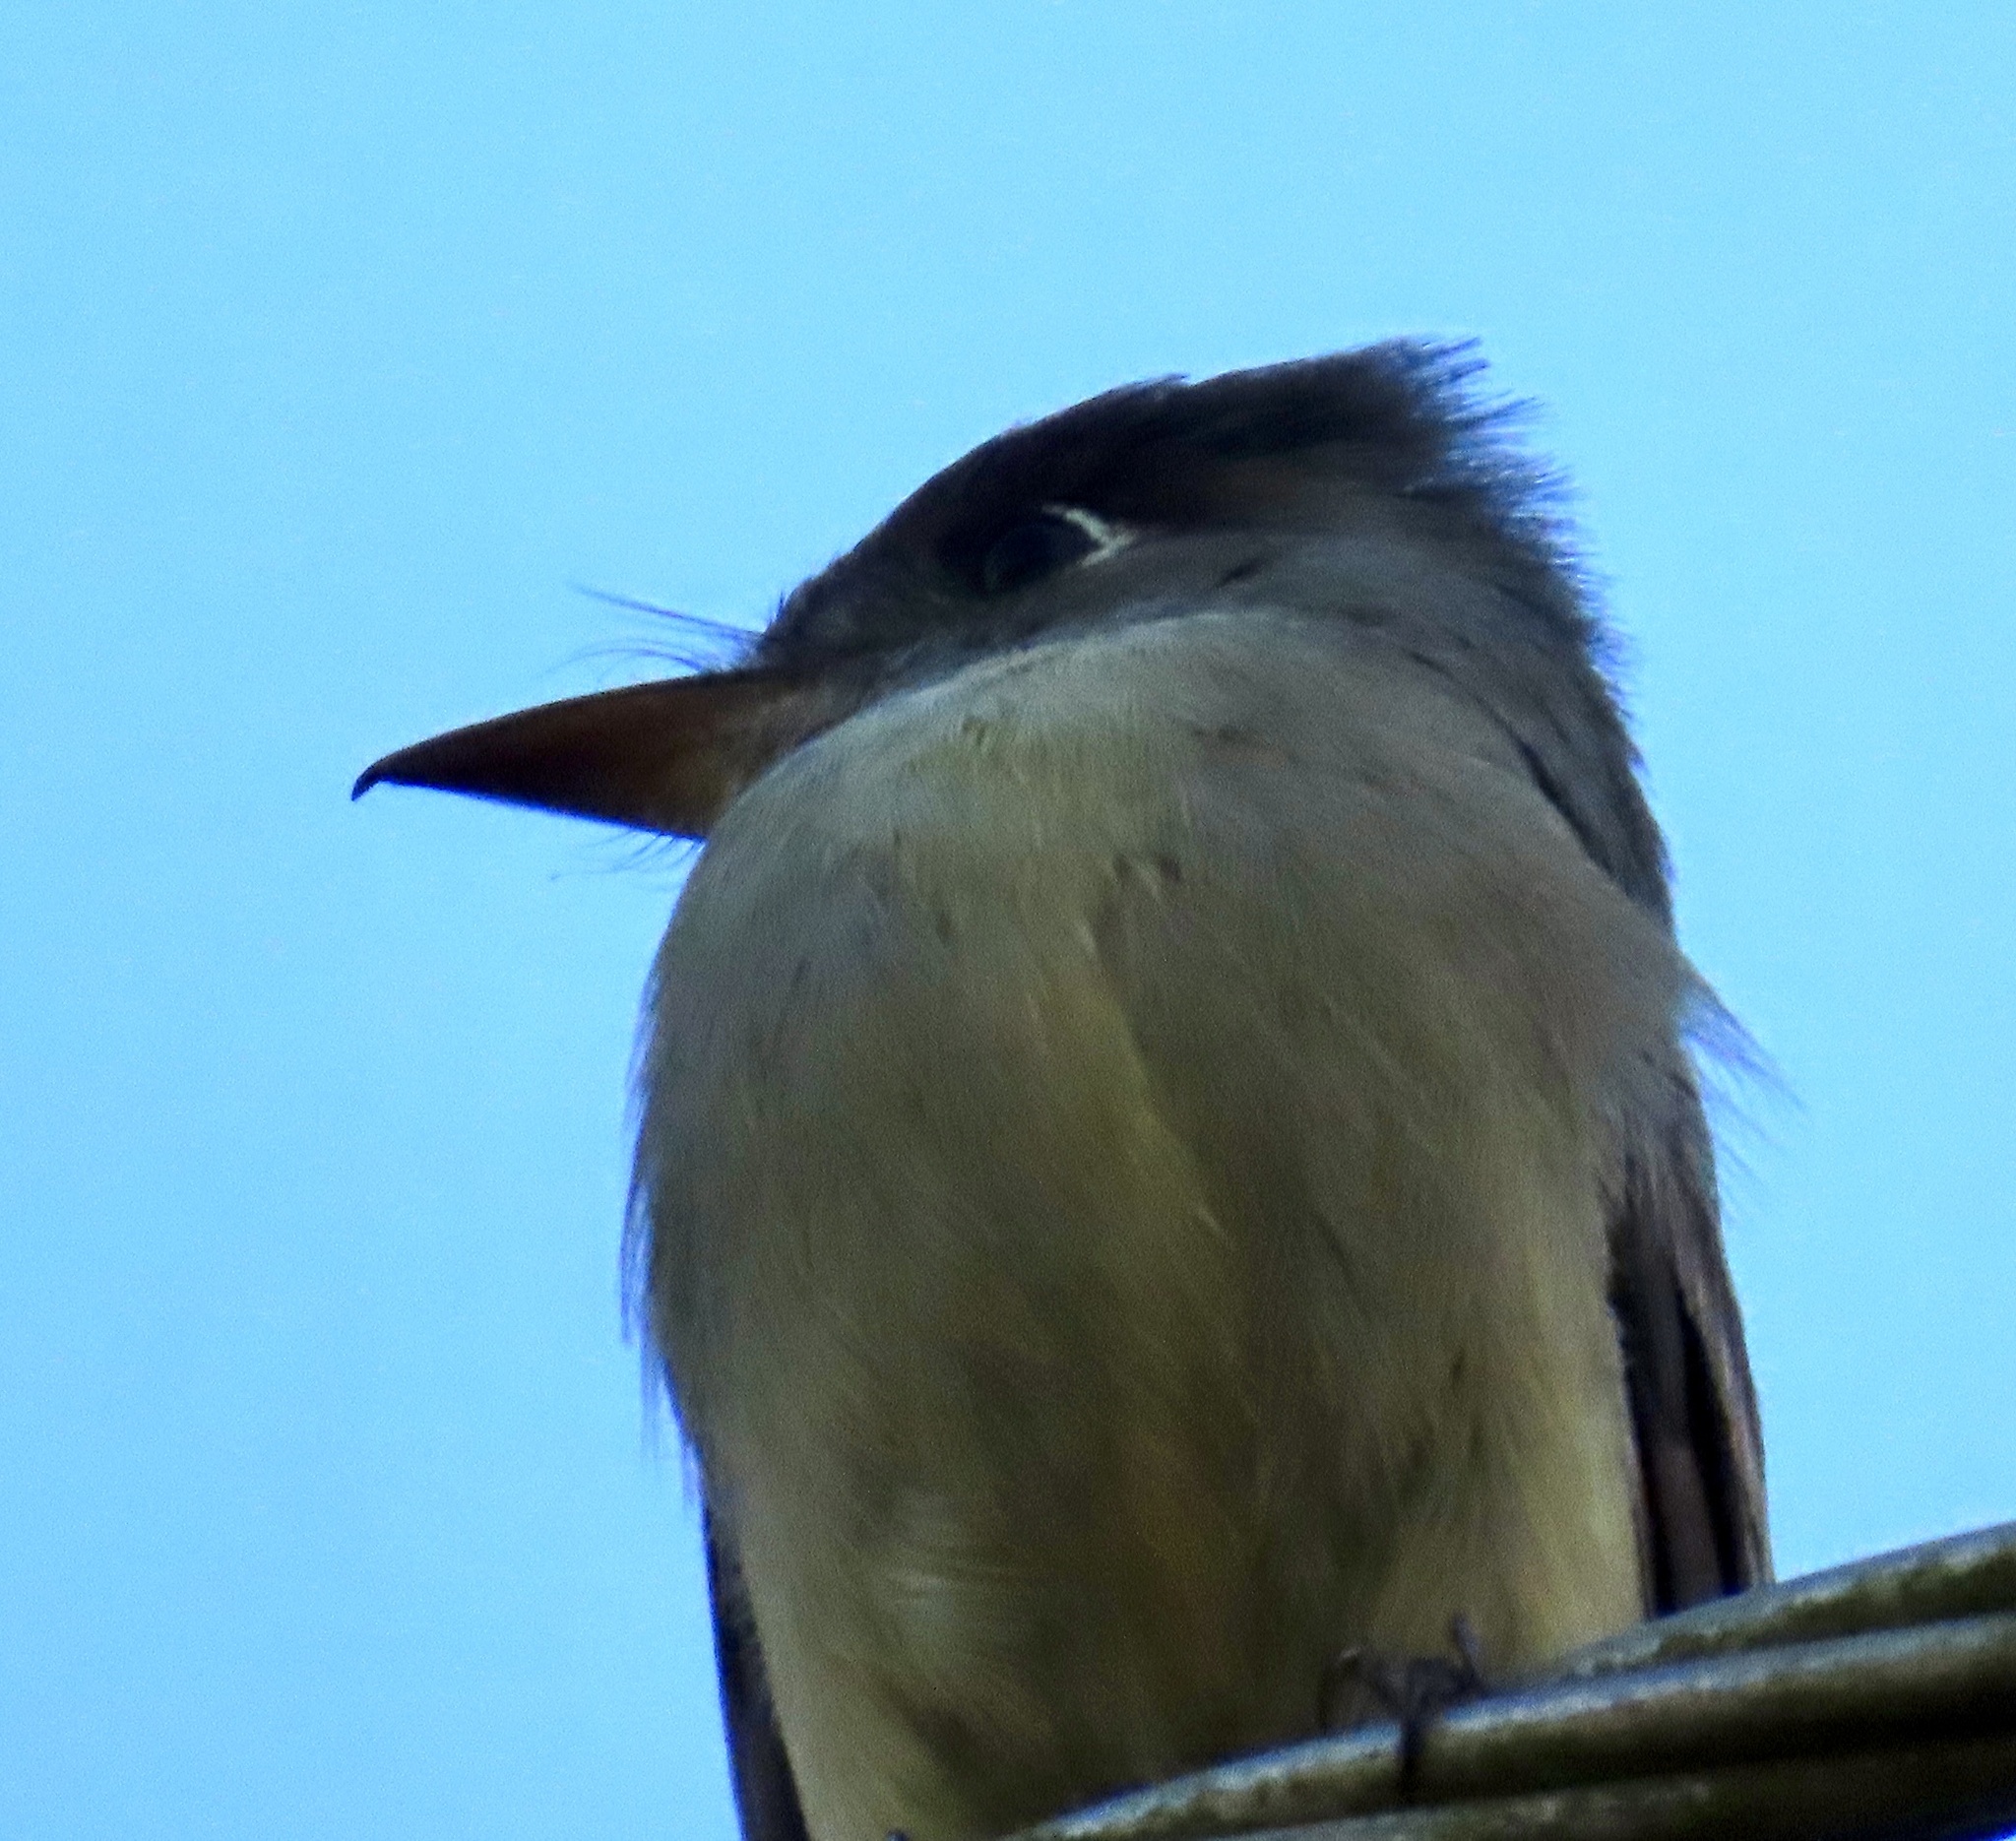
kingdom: Animalia
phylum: Chordata
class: Aves
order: Passeriformes
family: Tyrannidae
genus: Contopus
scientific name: Contopus caribaeus
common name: Cuban pewee
